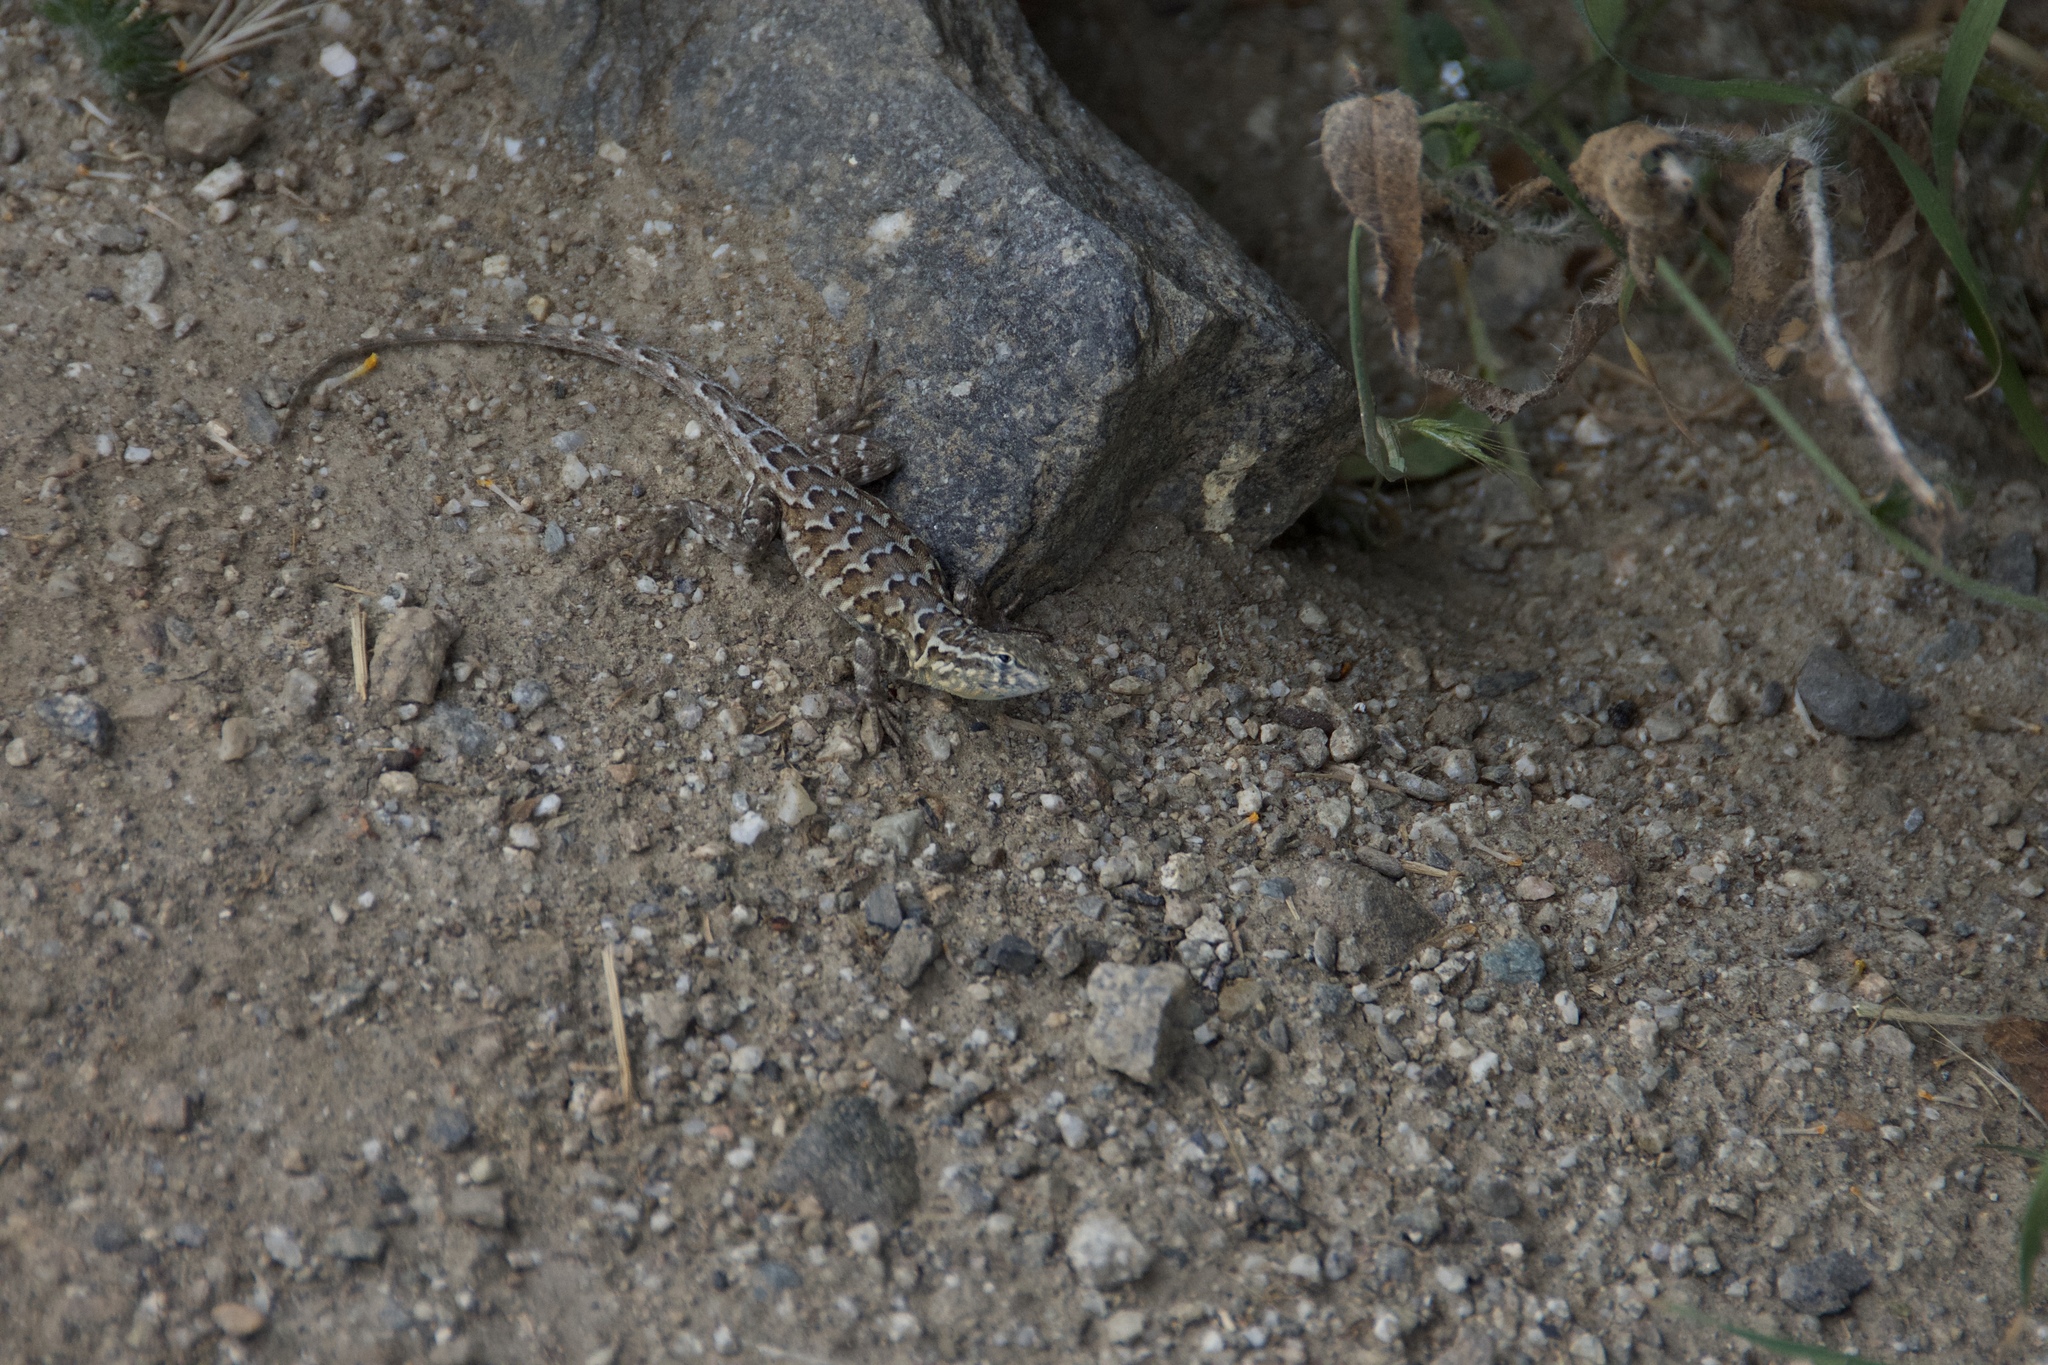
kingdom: Animalia
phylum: Chordata
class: Squamata
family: Phrynosomatidae
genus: Uta
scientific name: Uta stansburiana
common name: Side-blotched lizard
